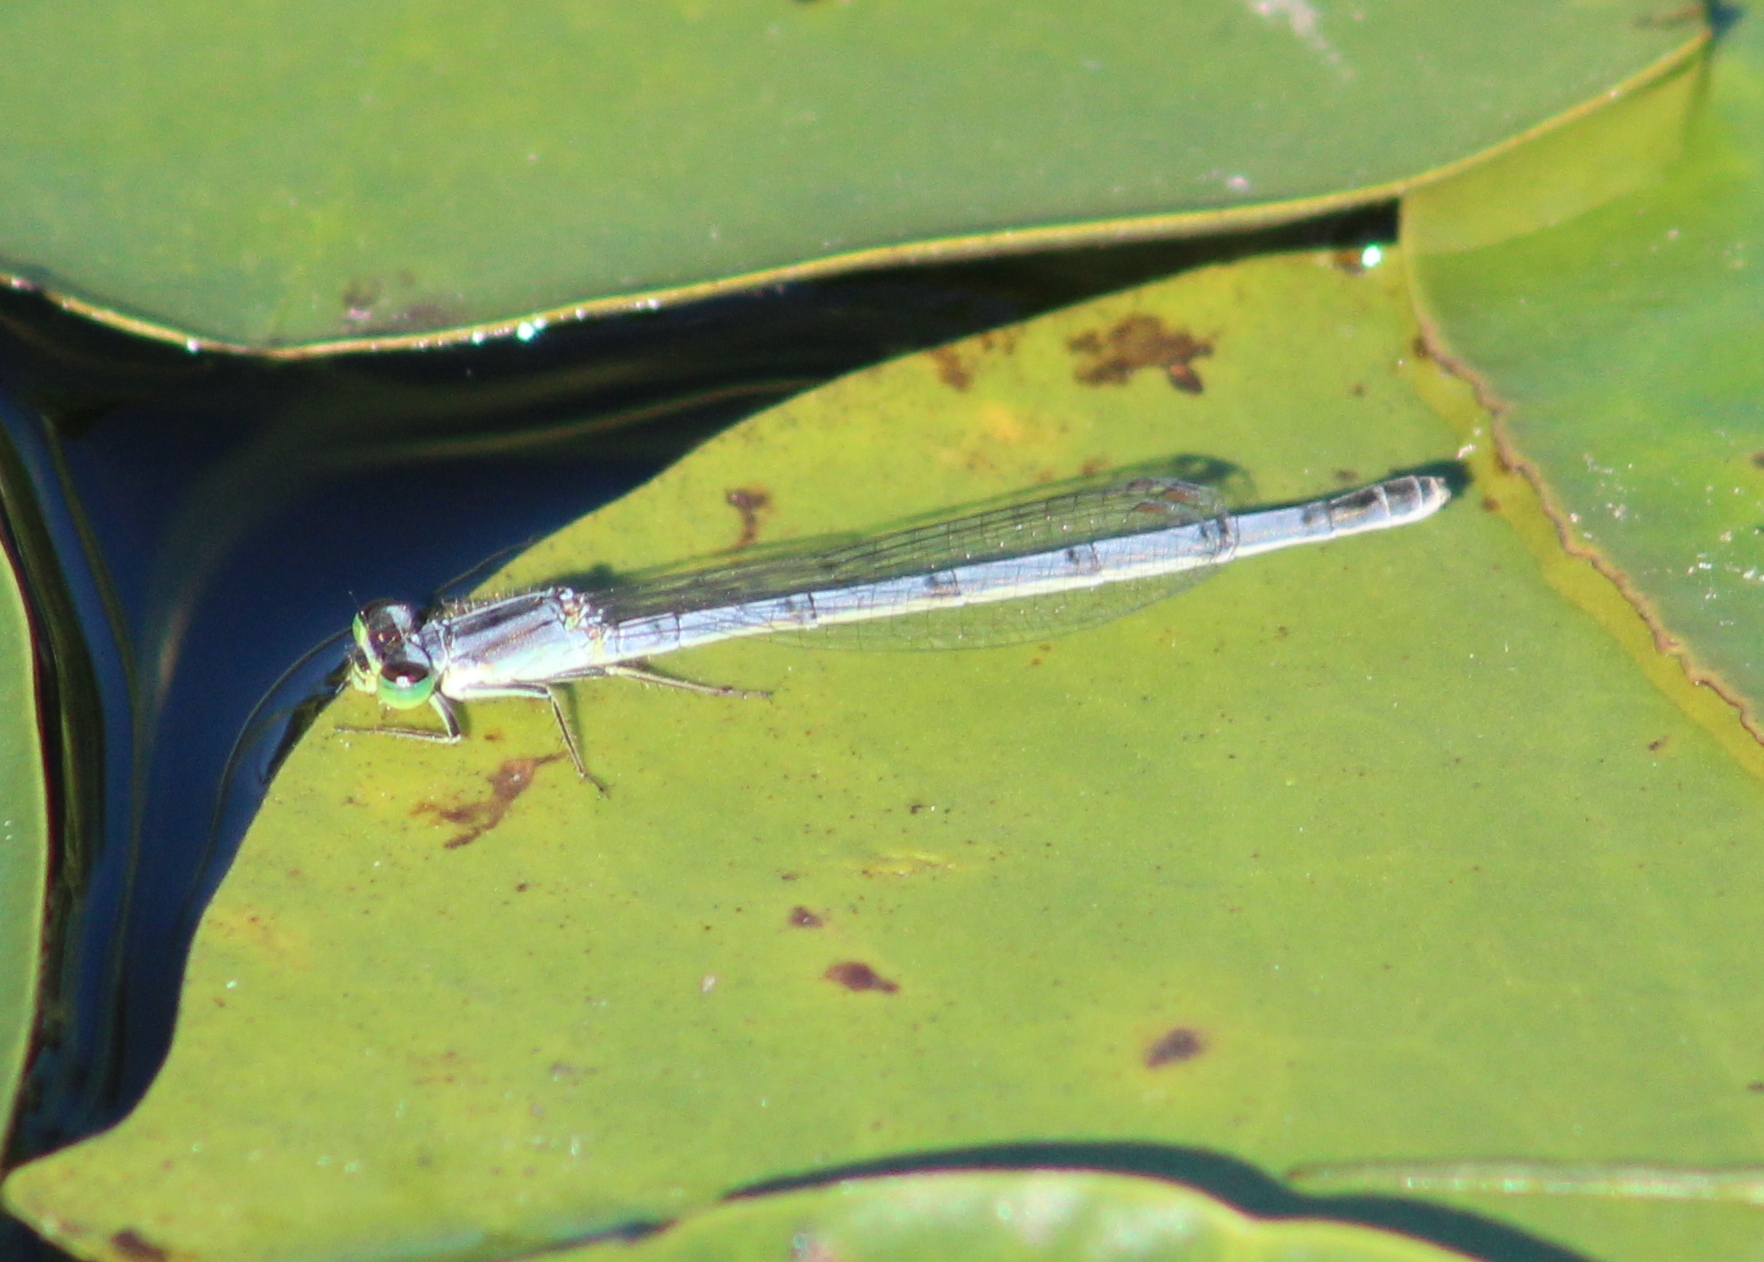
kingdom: Animalia
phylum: Arthropoda
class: Insecta
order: Odonata
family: Coenagrionidae
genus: Ischnura
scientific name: Ischnura verticalis
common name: Eastern forktail
